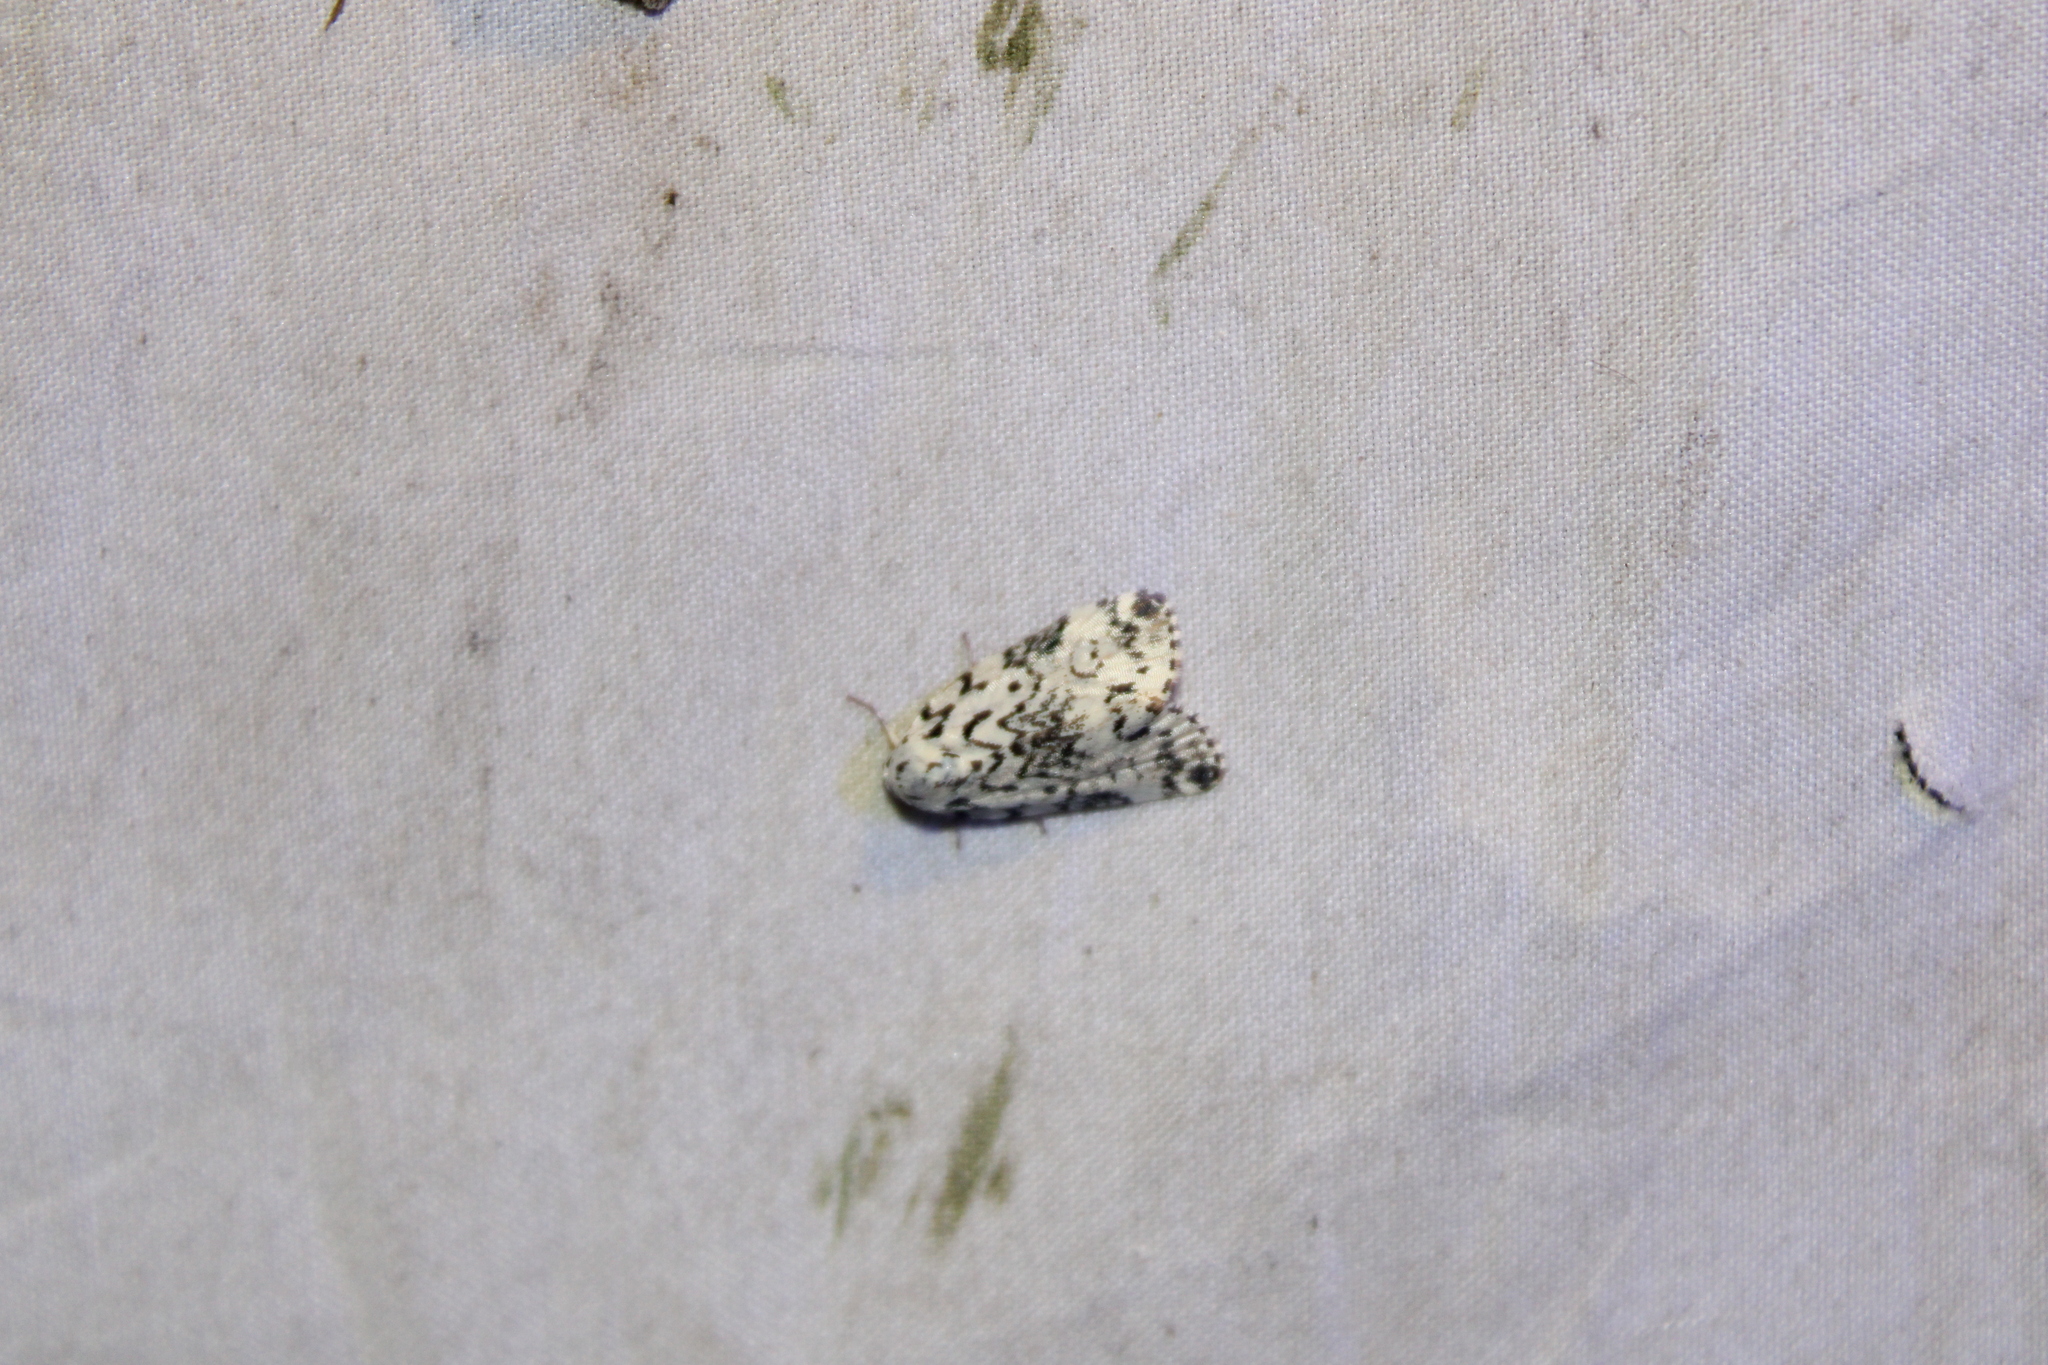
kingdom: Animalia
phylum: Arthropoda
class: Insecta
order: Lepidoptera
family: Noctuidae
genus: Polygrammate
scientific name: Polygrammate hebraeicum
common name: Hebrew moth
